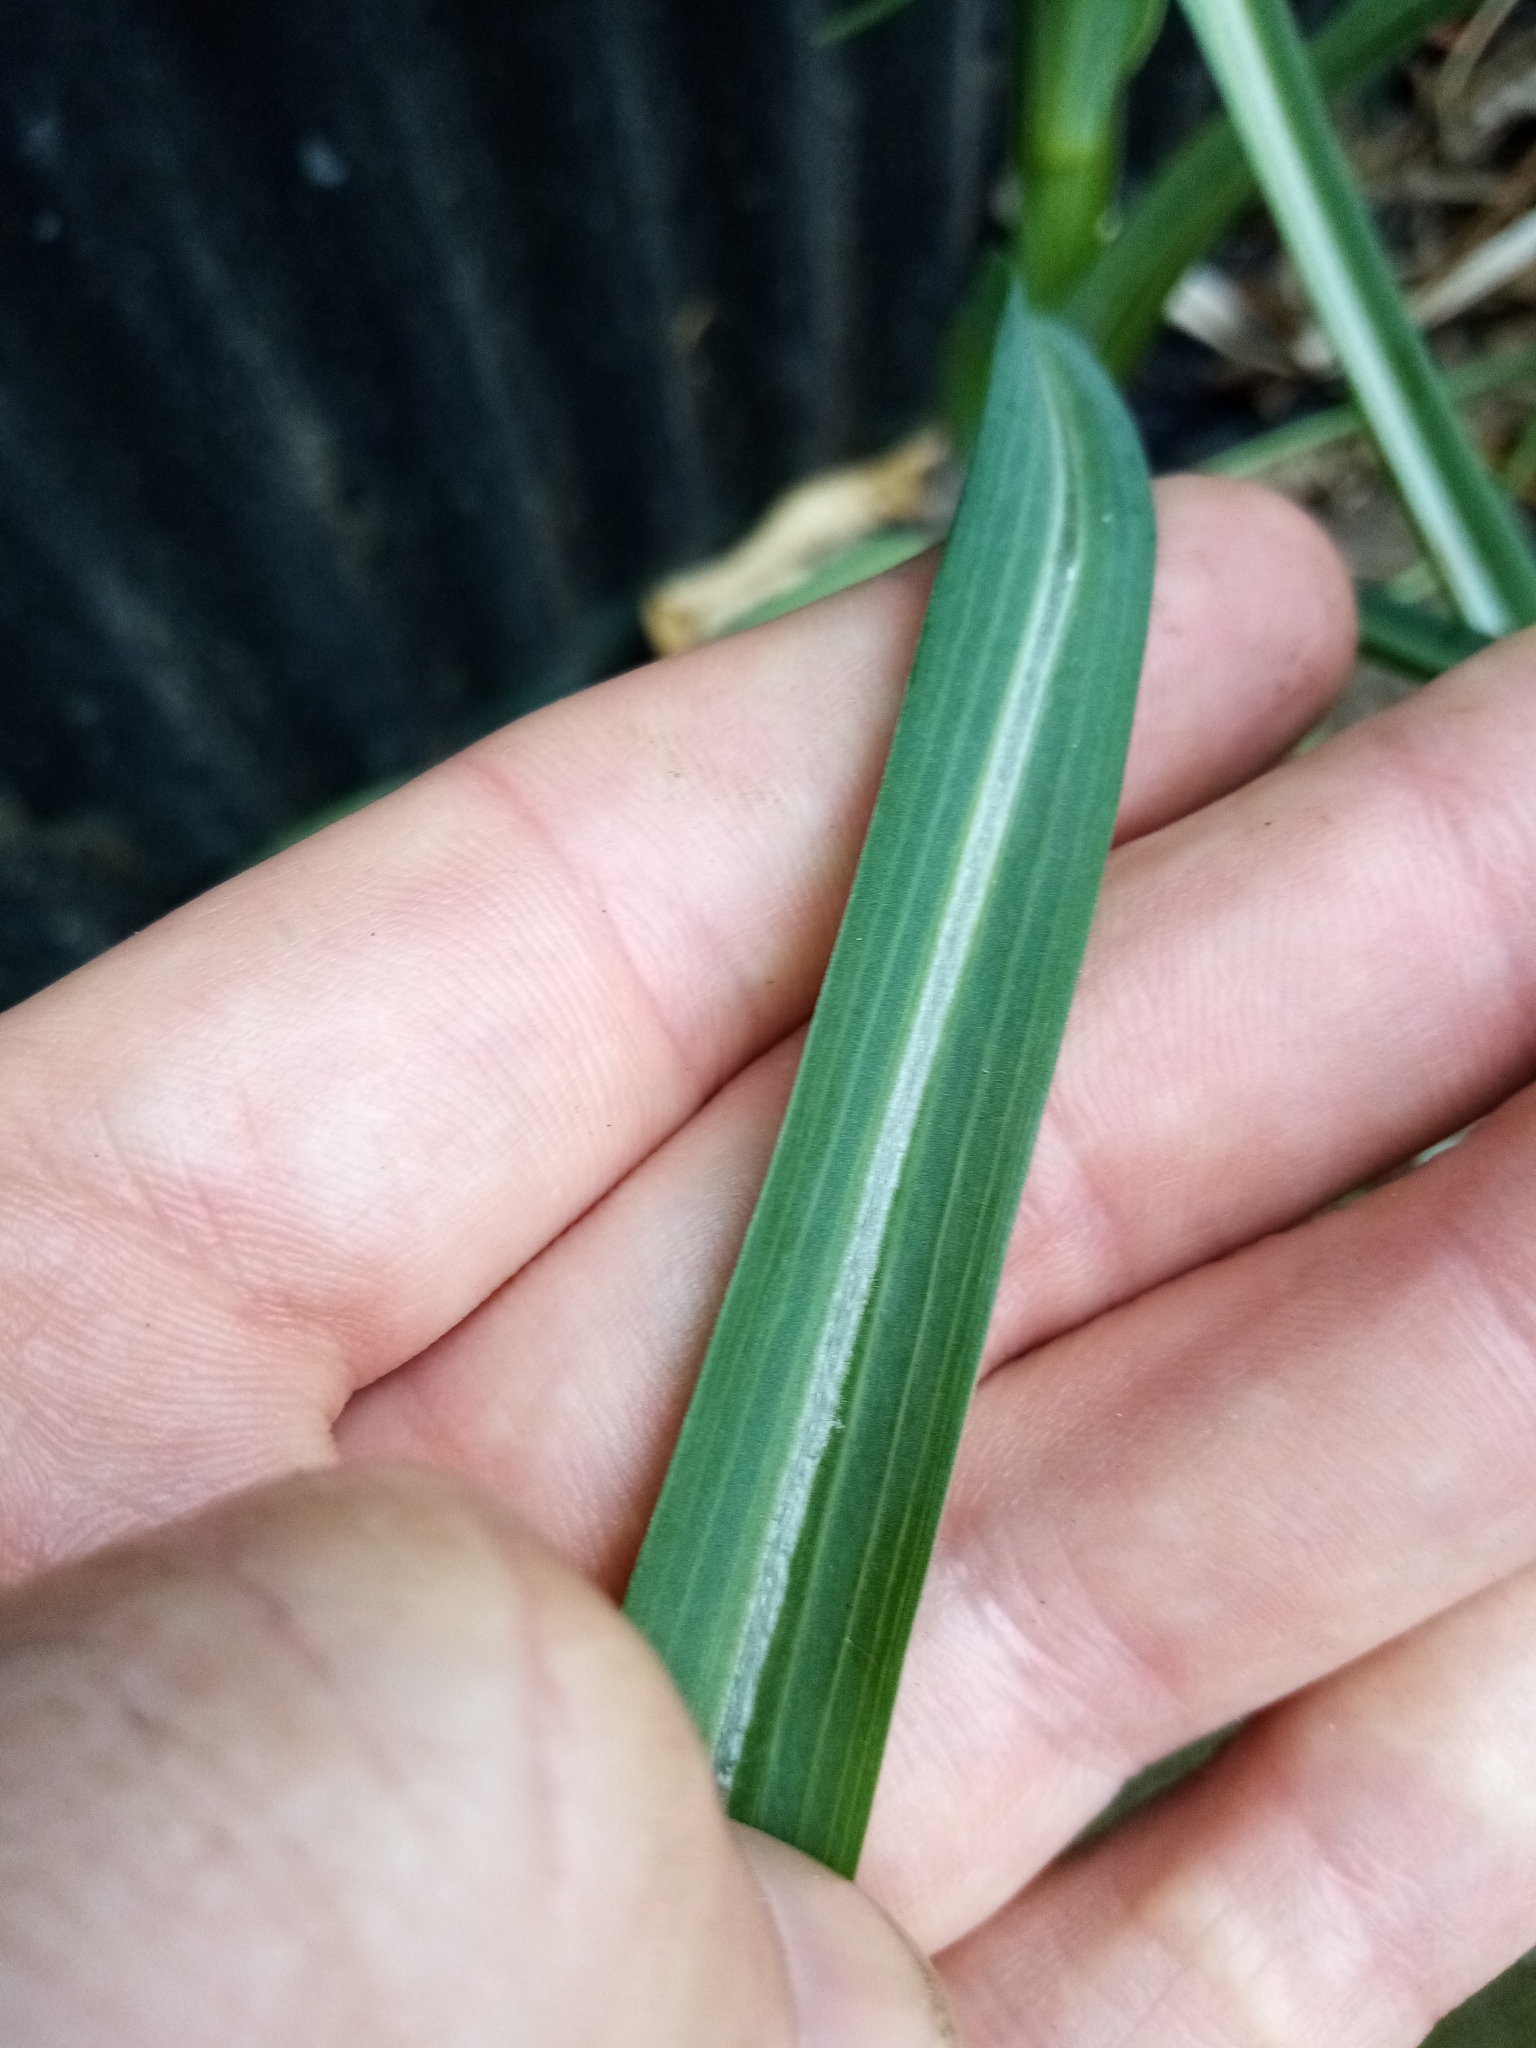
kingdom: Plantae
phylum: Tracheophyta
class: Magnoliopsida
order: Asterales
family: Asteraceae
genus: Tragopogon
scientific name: Tragopogon porrifolius
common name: Salsify
